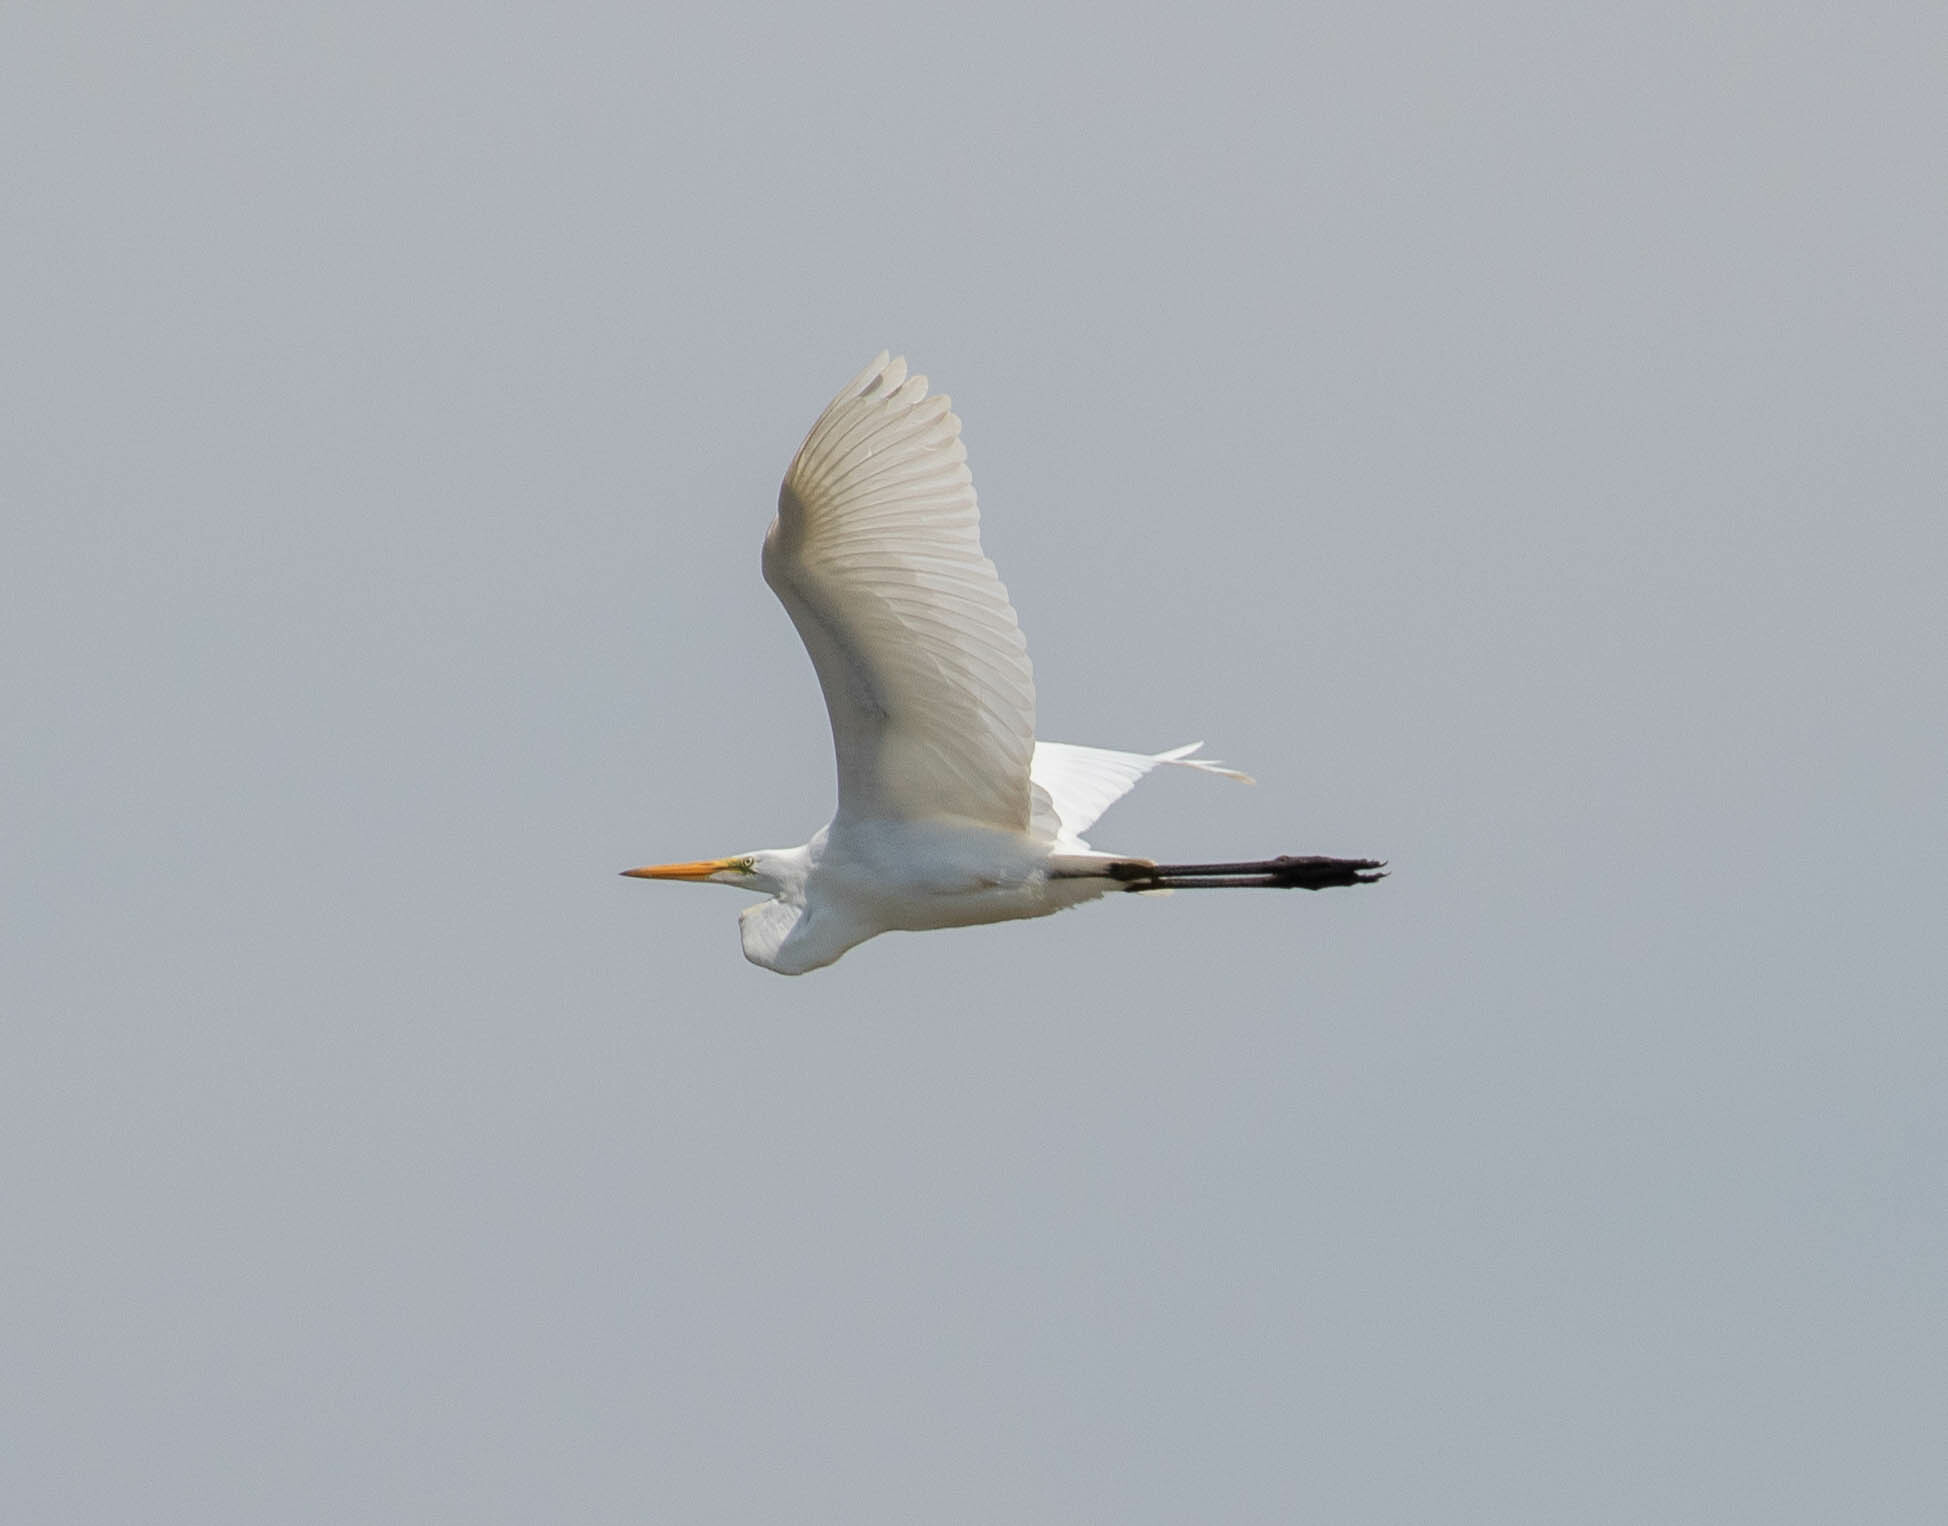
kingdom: Animalia
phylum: Chordata
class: Aves
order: Pelecaniformes
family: Ardeidae
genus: Ardea
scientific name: Ardea alba
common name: Great egret
